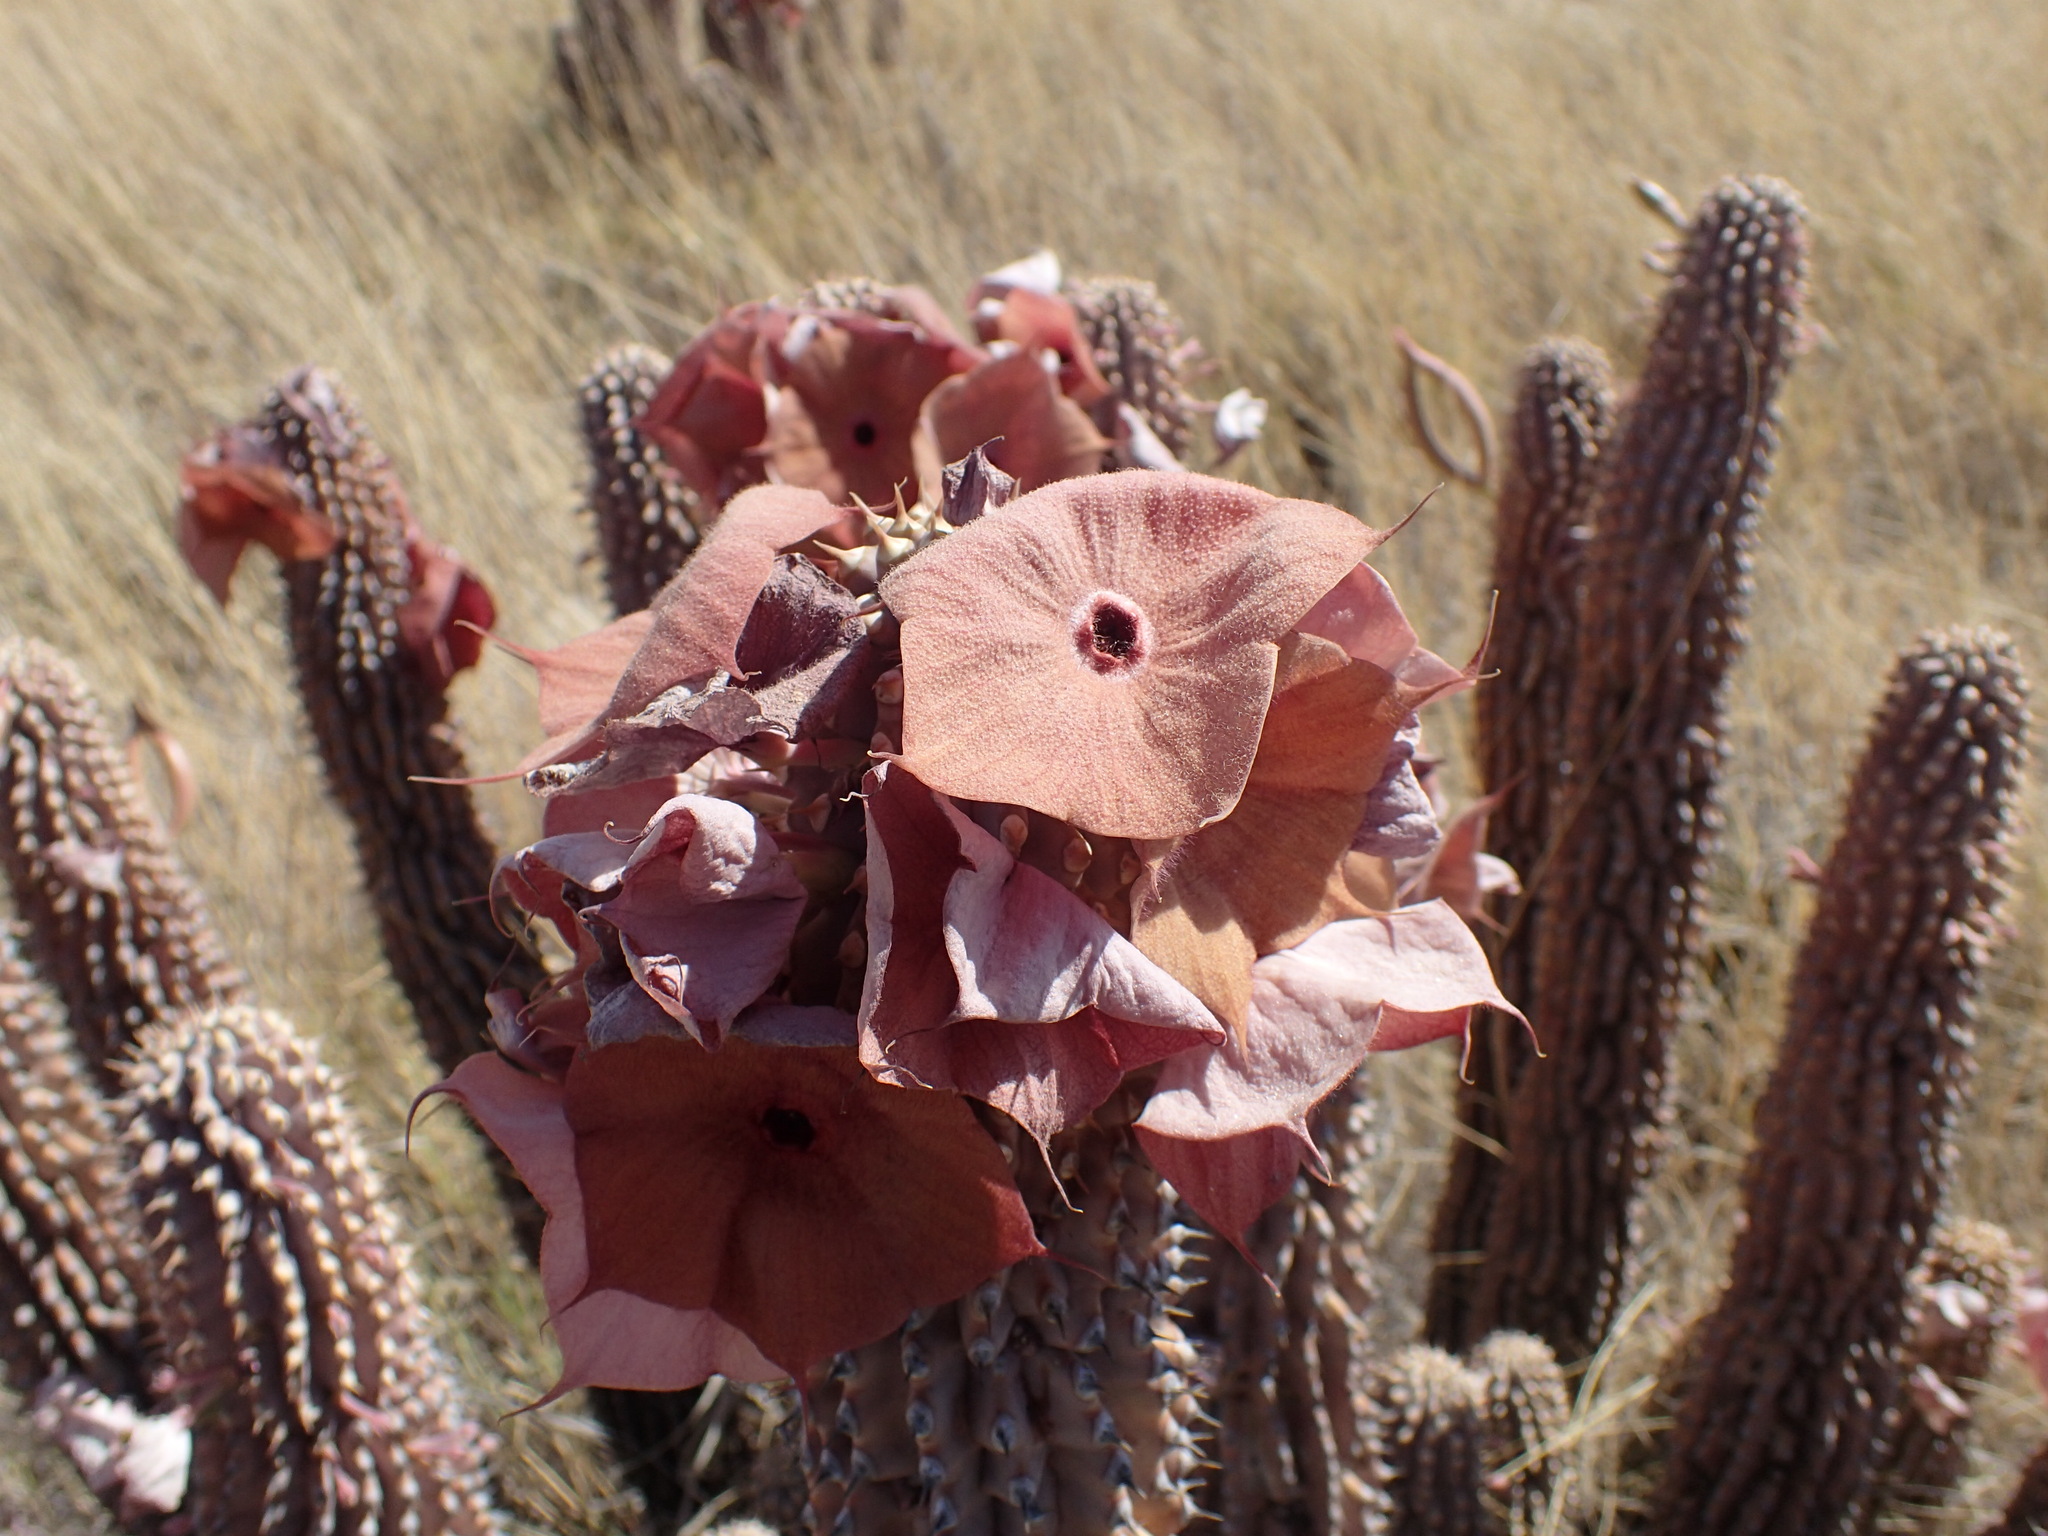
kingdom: Plantae
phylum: Tracheophyta
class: Magnoliopsida
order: Gentianales
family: Apocynaceae
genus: Ceropegia
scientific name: Ceropegia currorii
